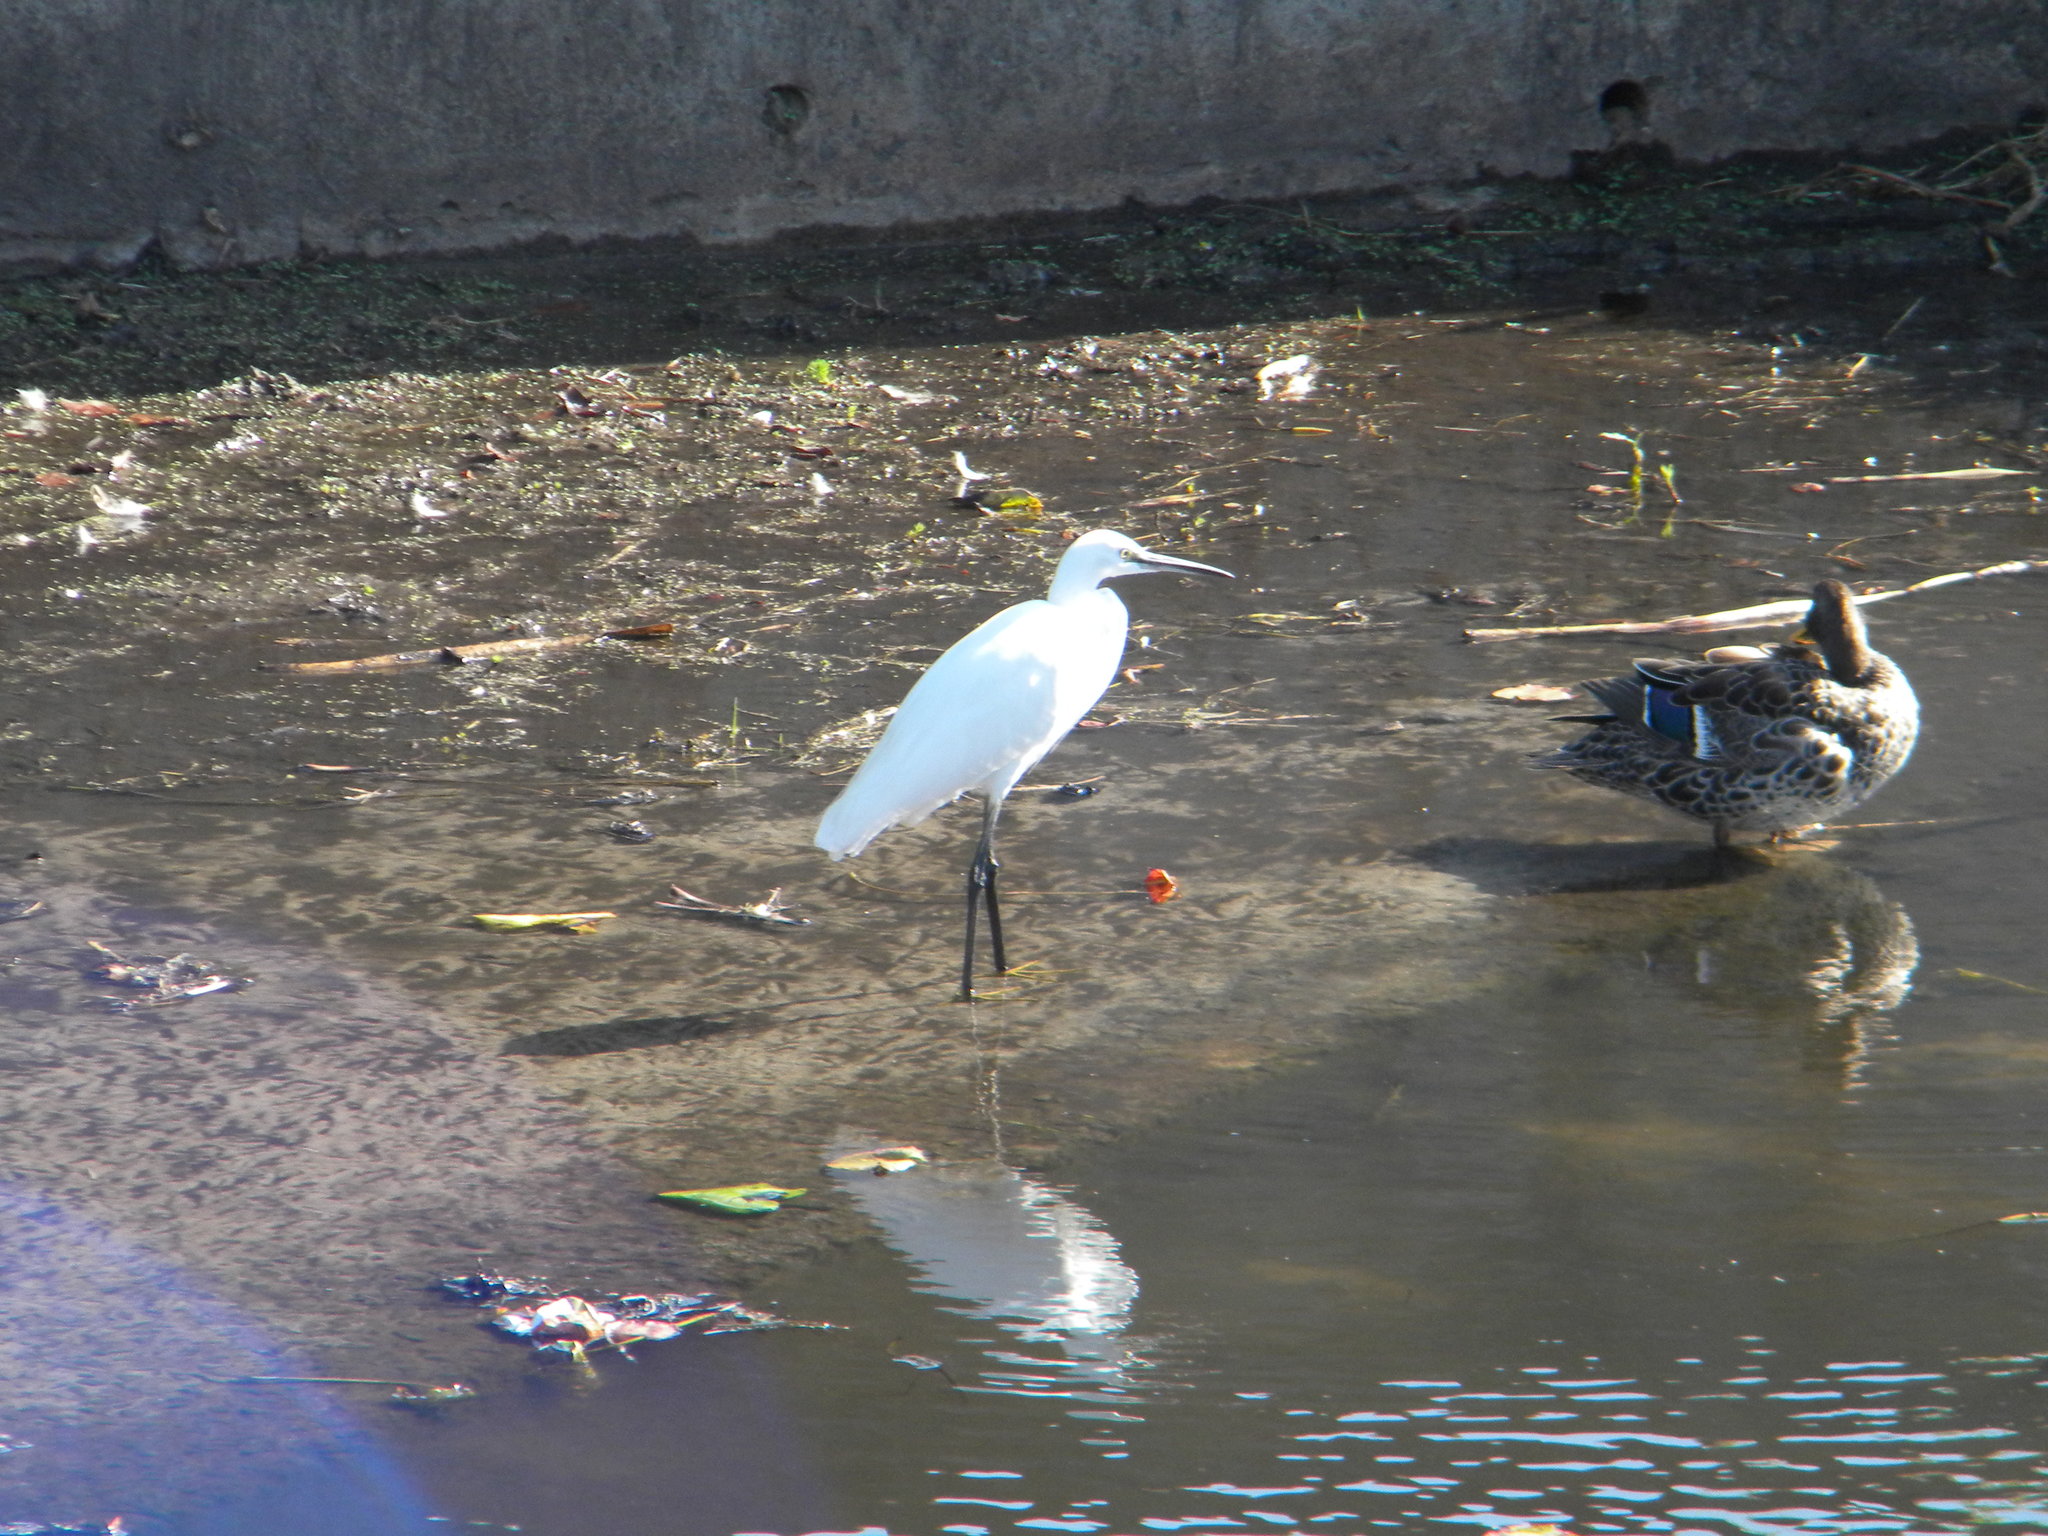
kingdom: Animalia
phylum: Chordata
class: Aves
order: Pelecaniformes
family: Ardeidae
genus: Egretta
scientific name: Egretta garzetta
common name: Little egret
